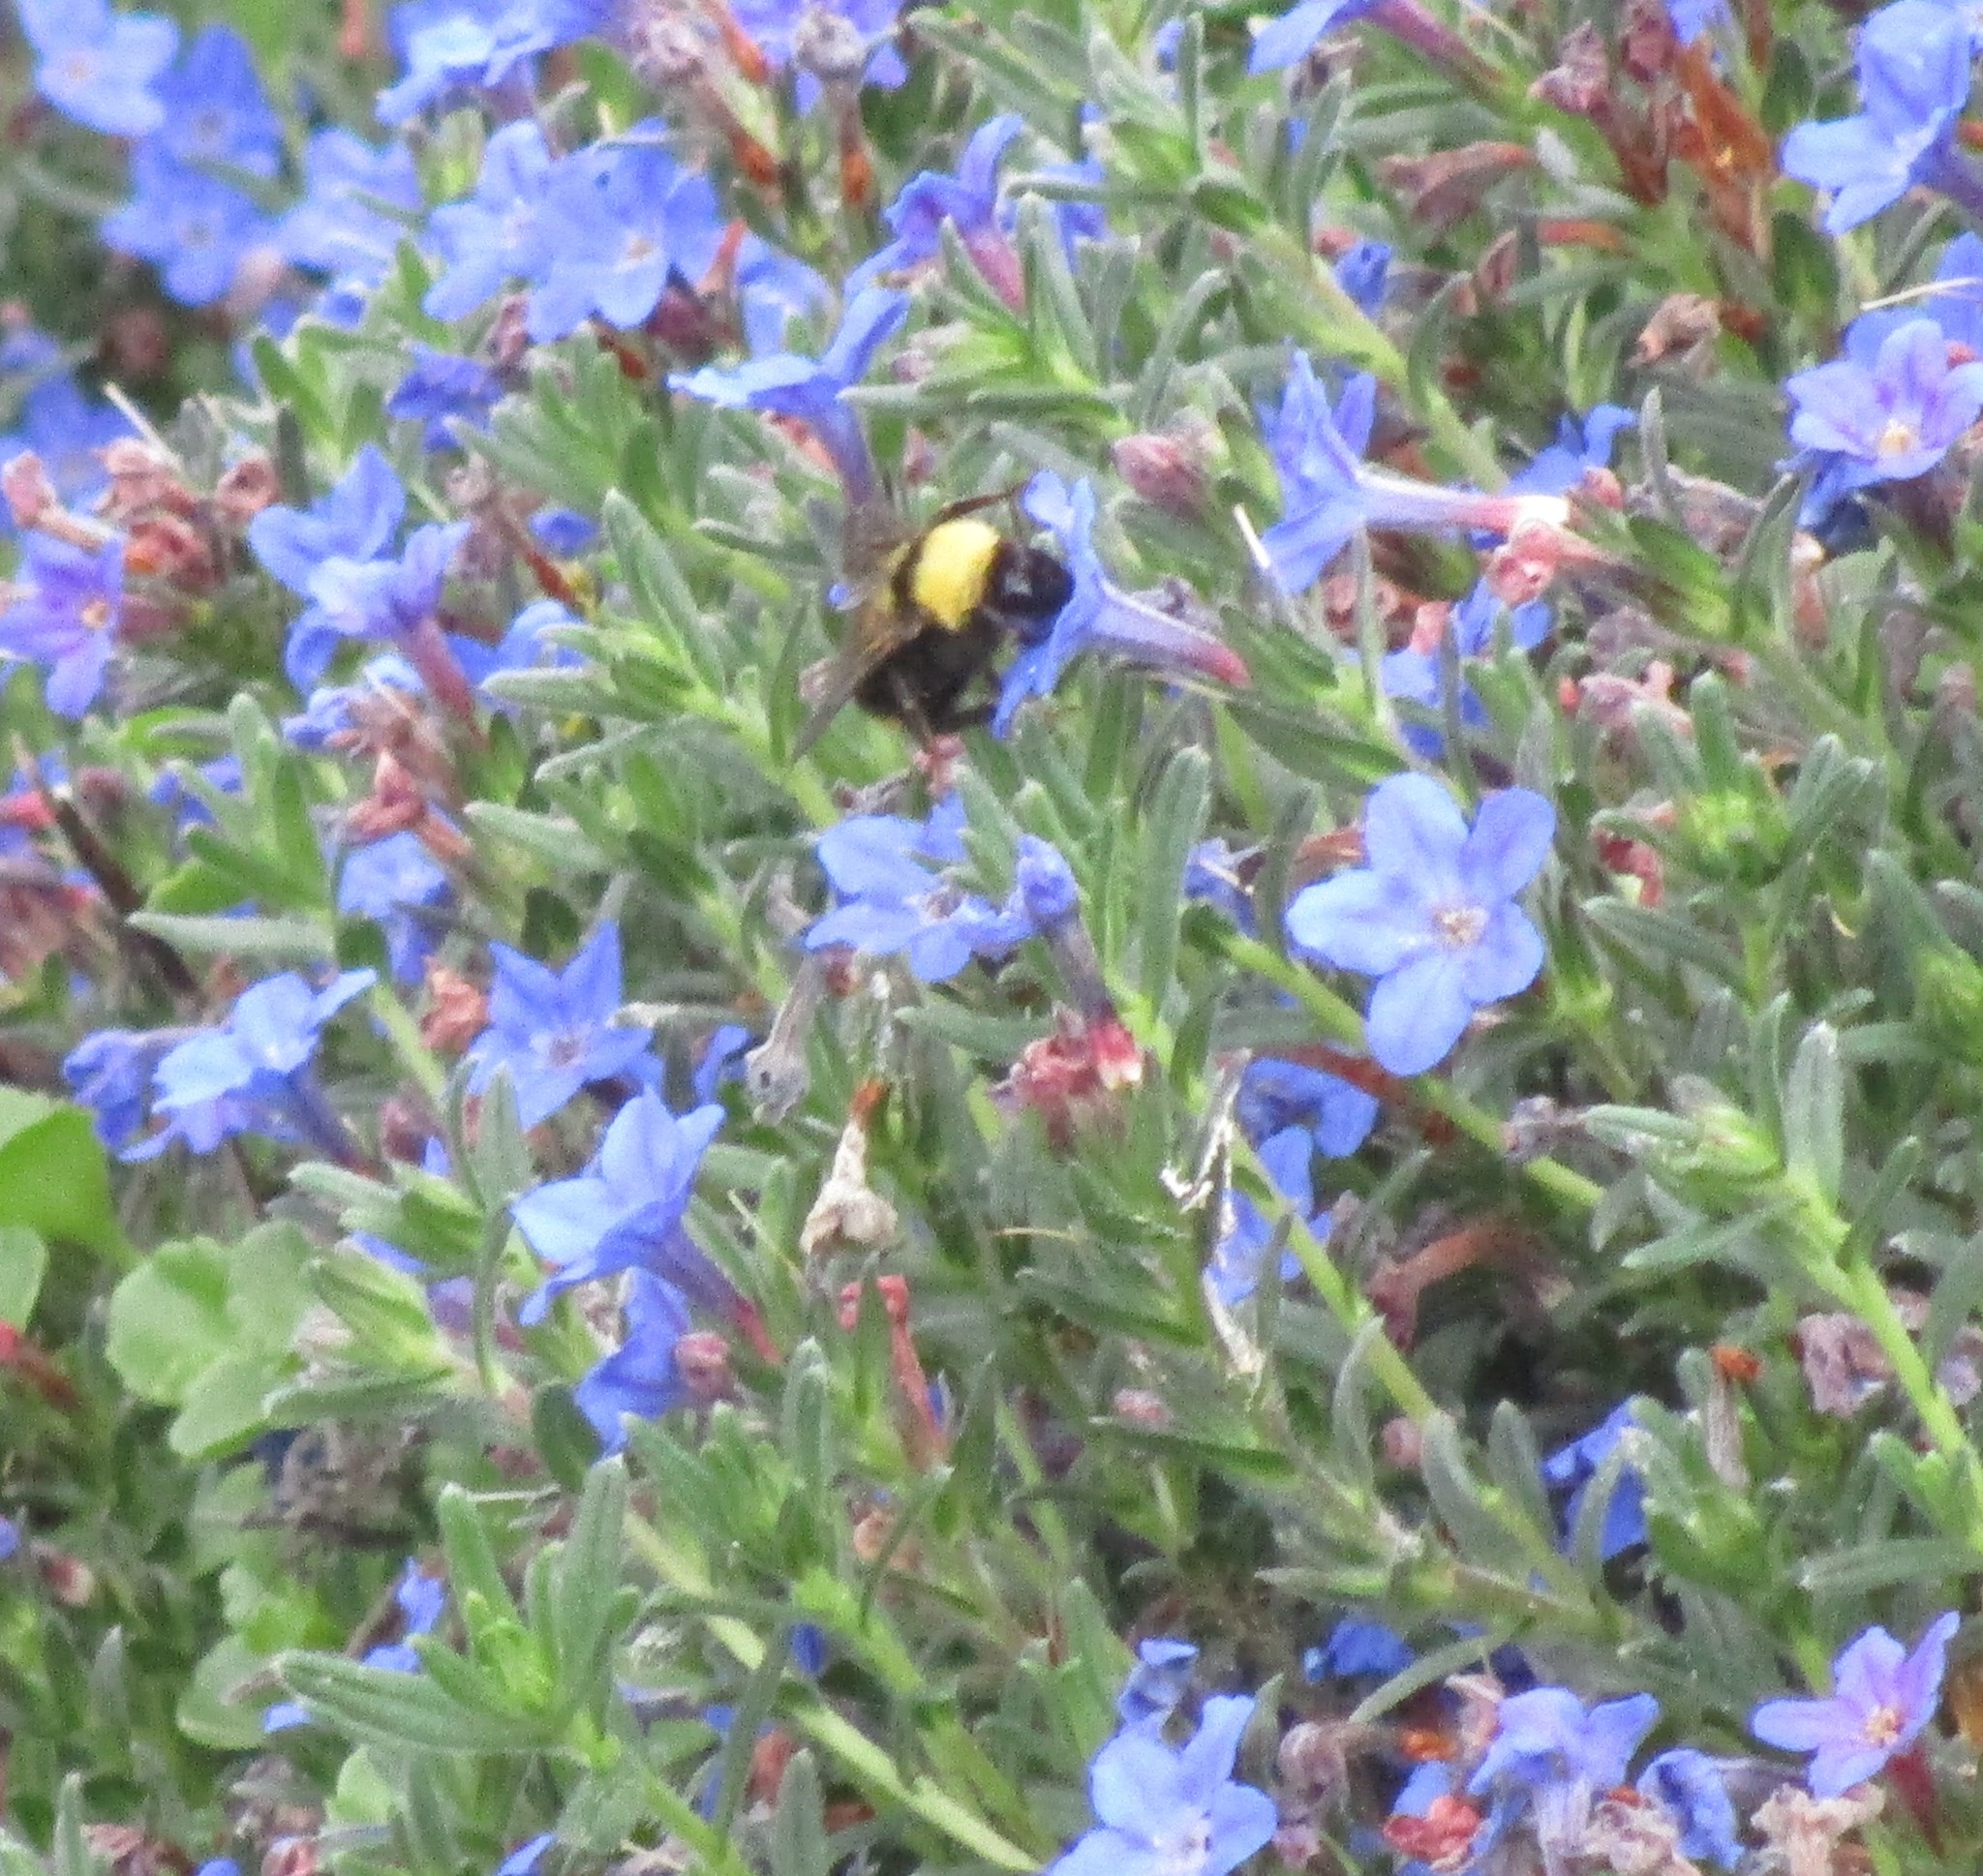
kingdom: Animalia
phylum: Arthropoda
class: Insecta
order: Hymenoptera
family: Apidae
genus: Bombus
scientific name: Bombus californicus
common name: California bumble bee
